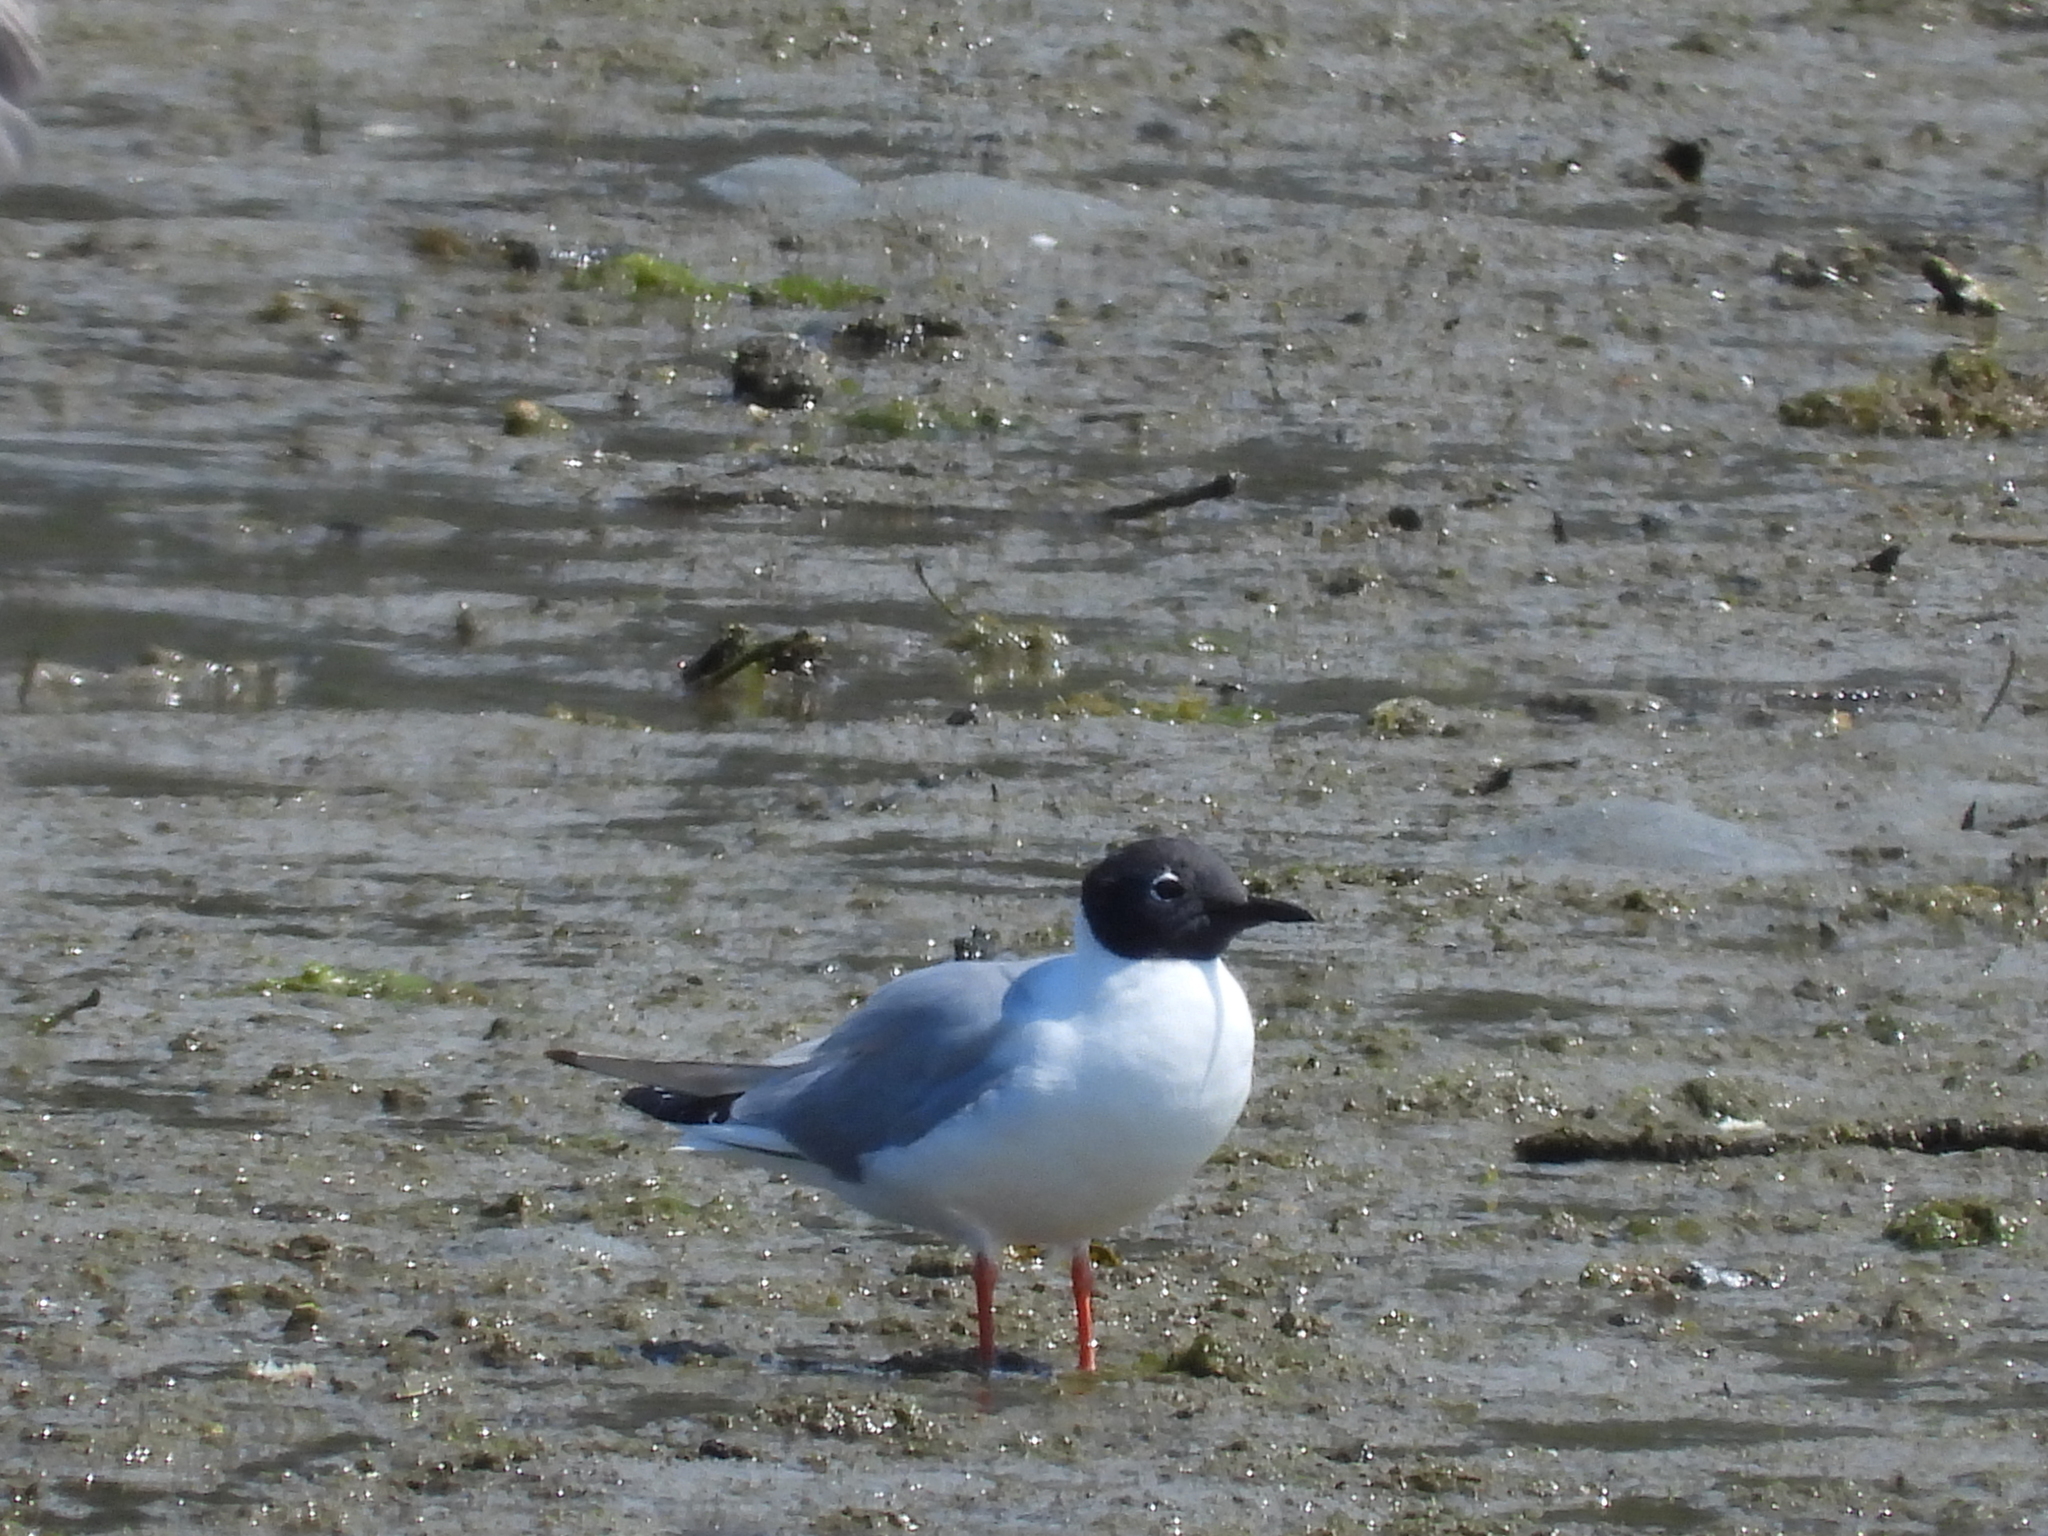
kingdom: Animalia
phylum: Chordata
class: Aves
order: Charadriiformes
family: Laridae
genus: Chroicocephalus
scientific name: Chroicocephalus philadelphia
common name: Bonaparte's gull
